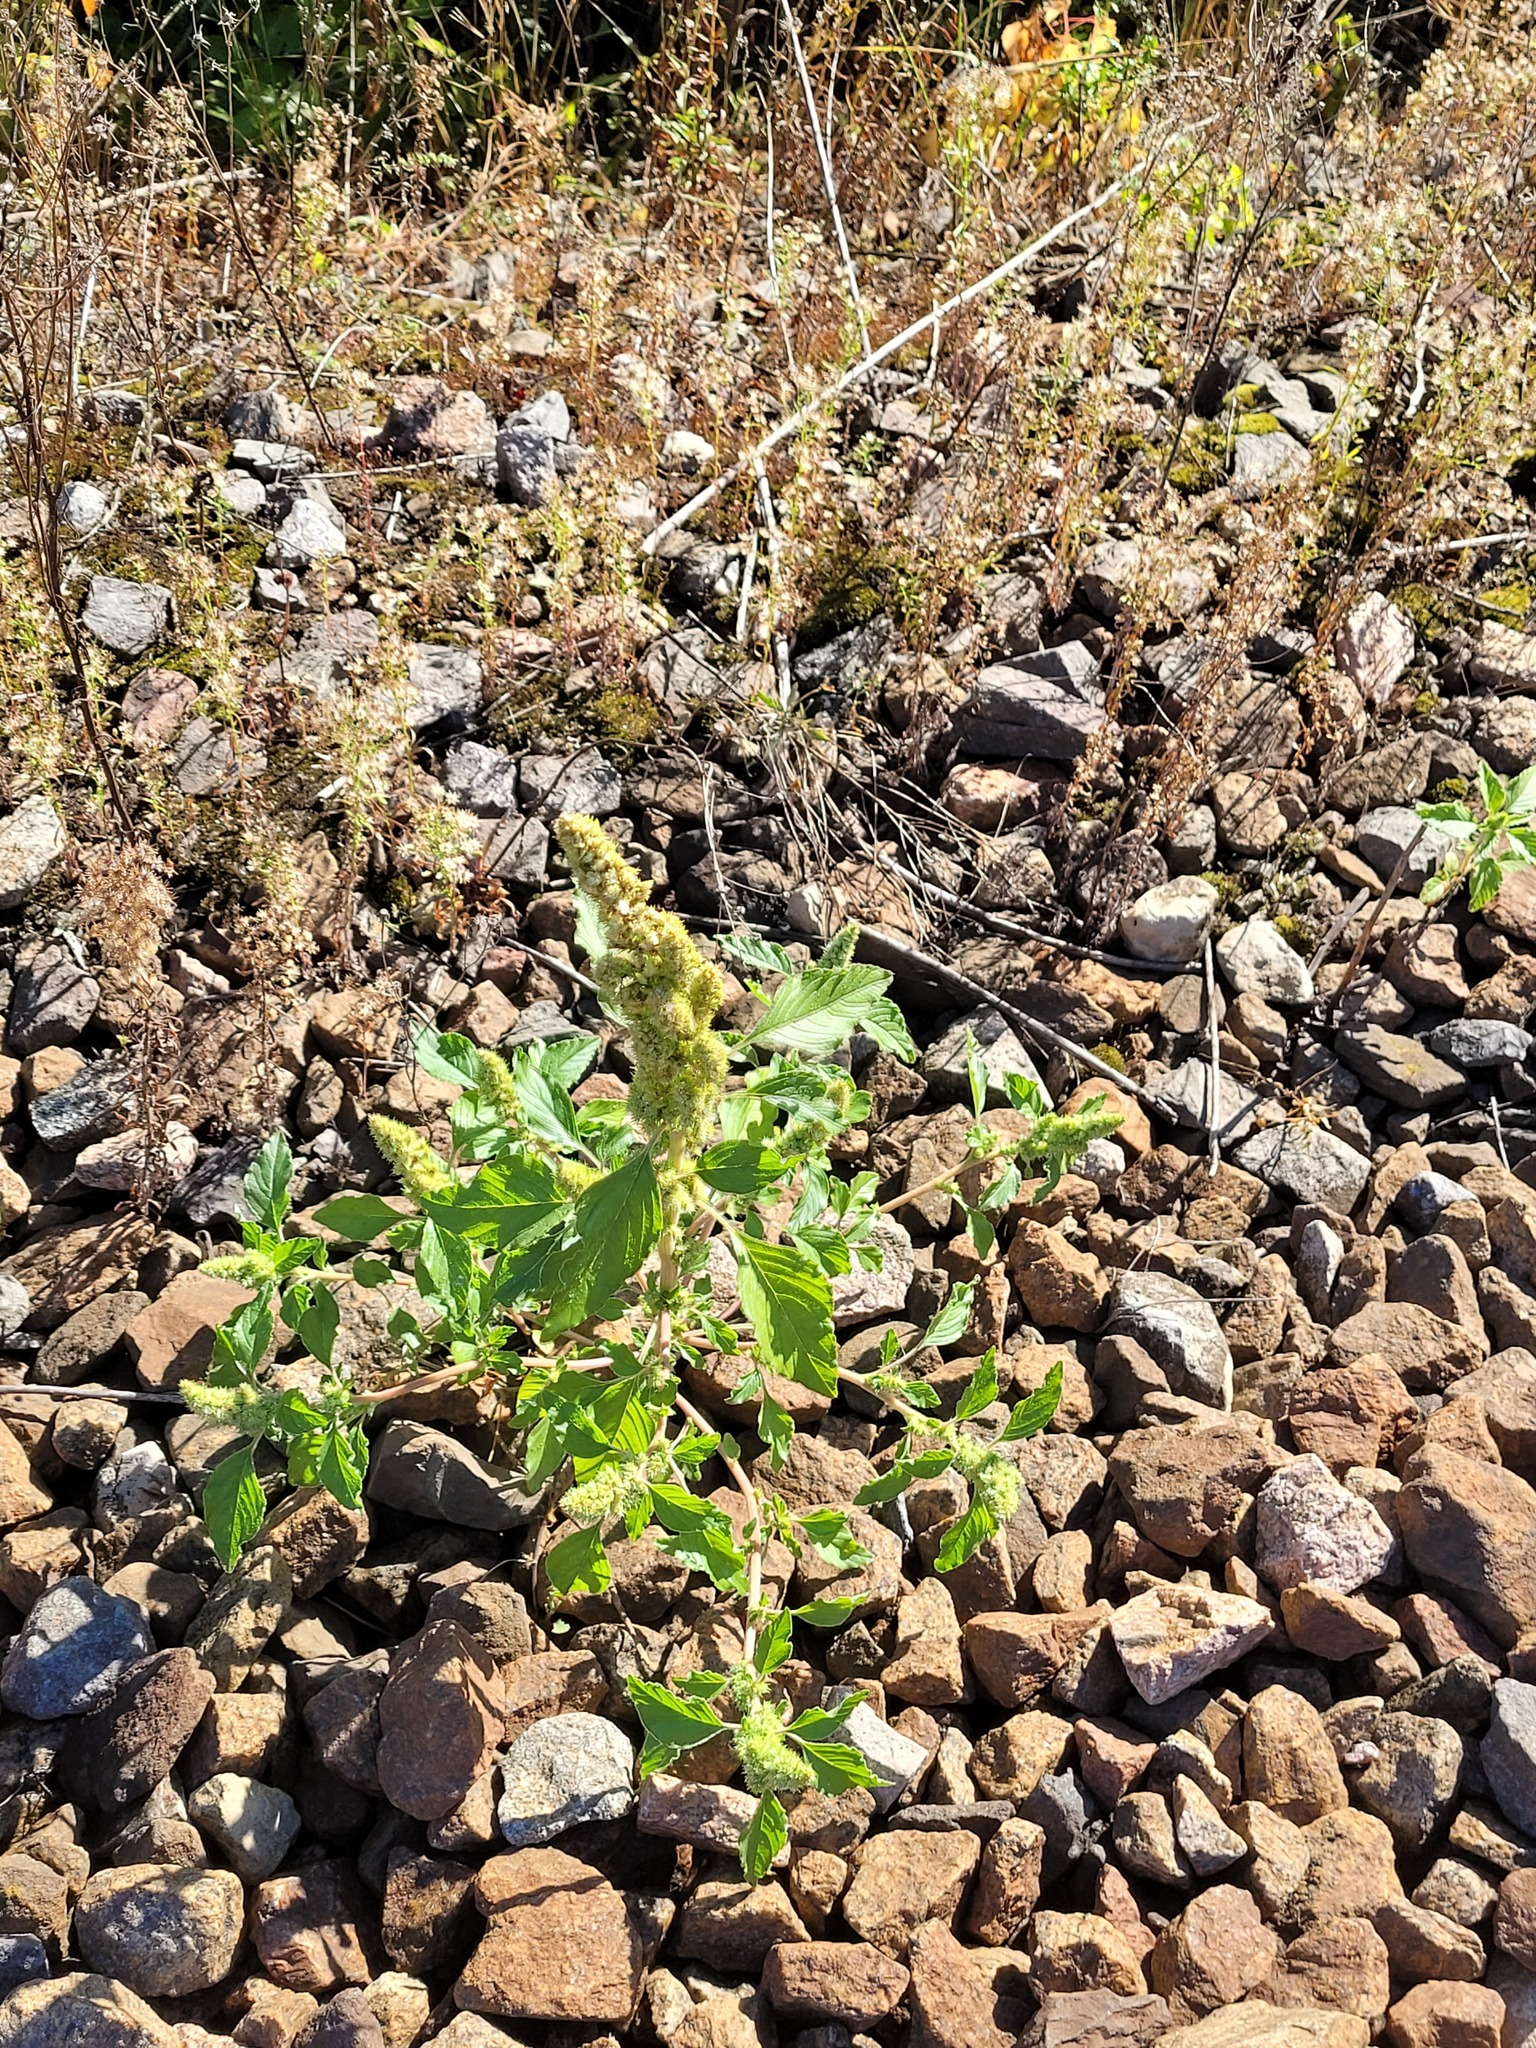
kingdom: Plantae
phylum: Tracheophyta
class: Magnoliopsida
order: Caryophyllales
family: Amaranthaceae
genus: Amaranthus
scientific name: Amaranthus retroflexus
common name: Redroot amaranth
